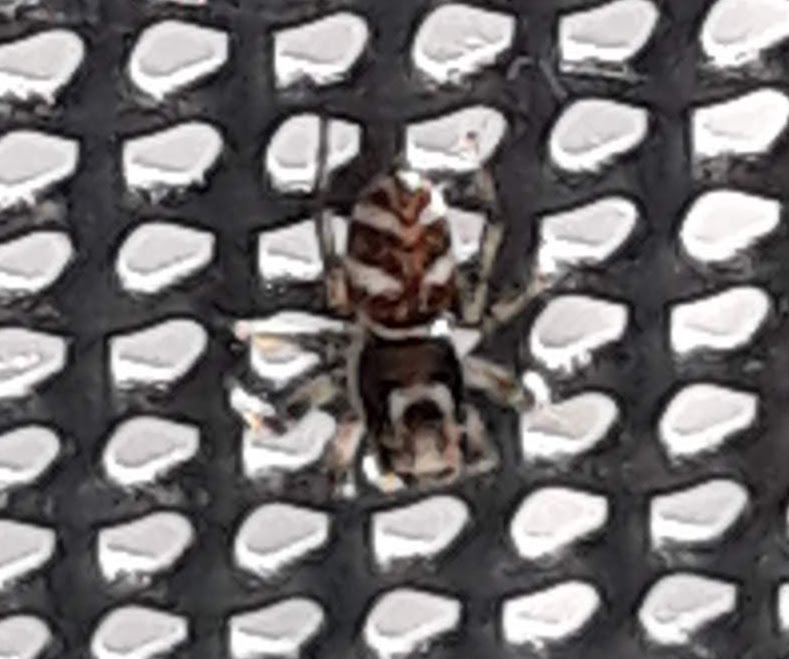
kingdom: Animalia
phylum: Arthropoda
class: Arachnida
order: Araneae
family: Salticidae
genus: Salticus
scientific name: Salticus scenicus
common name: Zebra jumper
